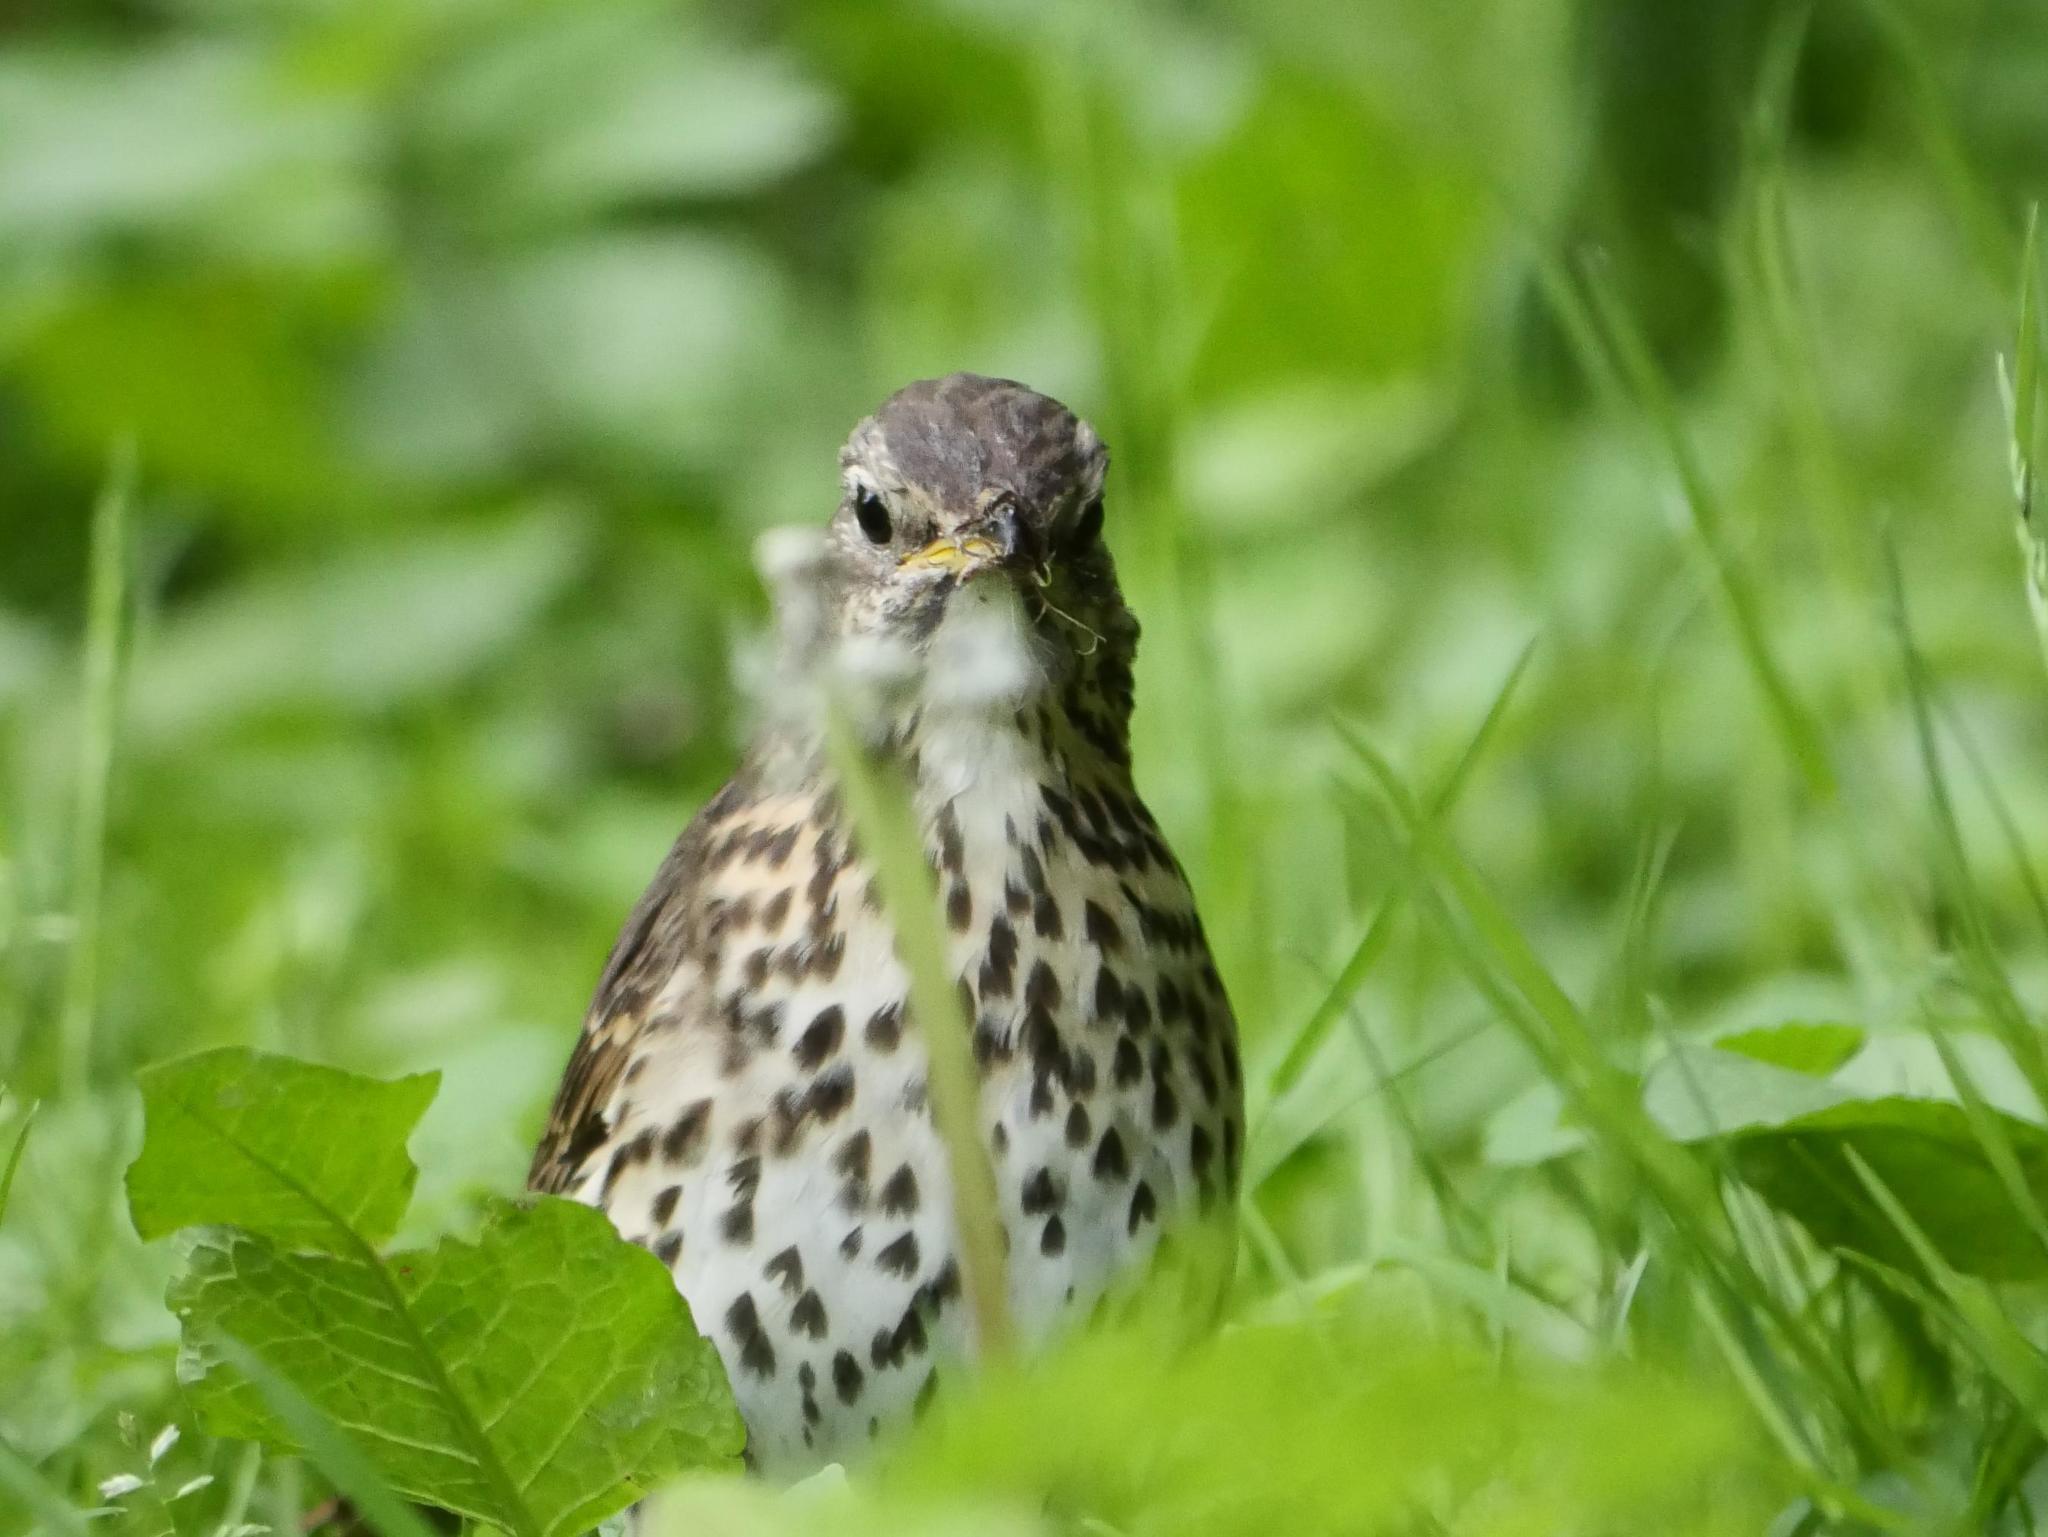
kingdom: Animalia
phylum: Chordata
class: Aves
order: Passeriformes
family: Turdidae
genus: Turdus
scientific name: Turdus philomelos
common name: Song thrush
